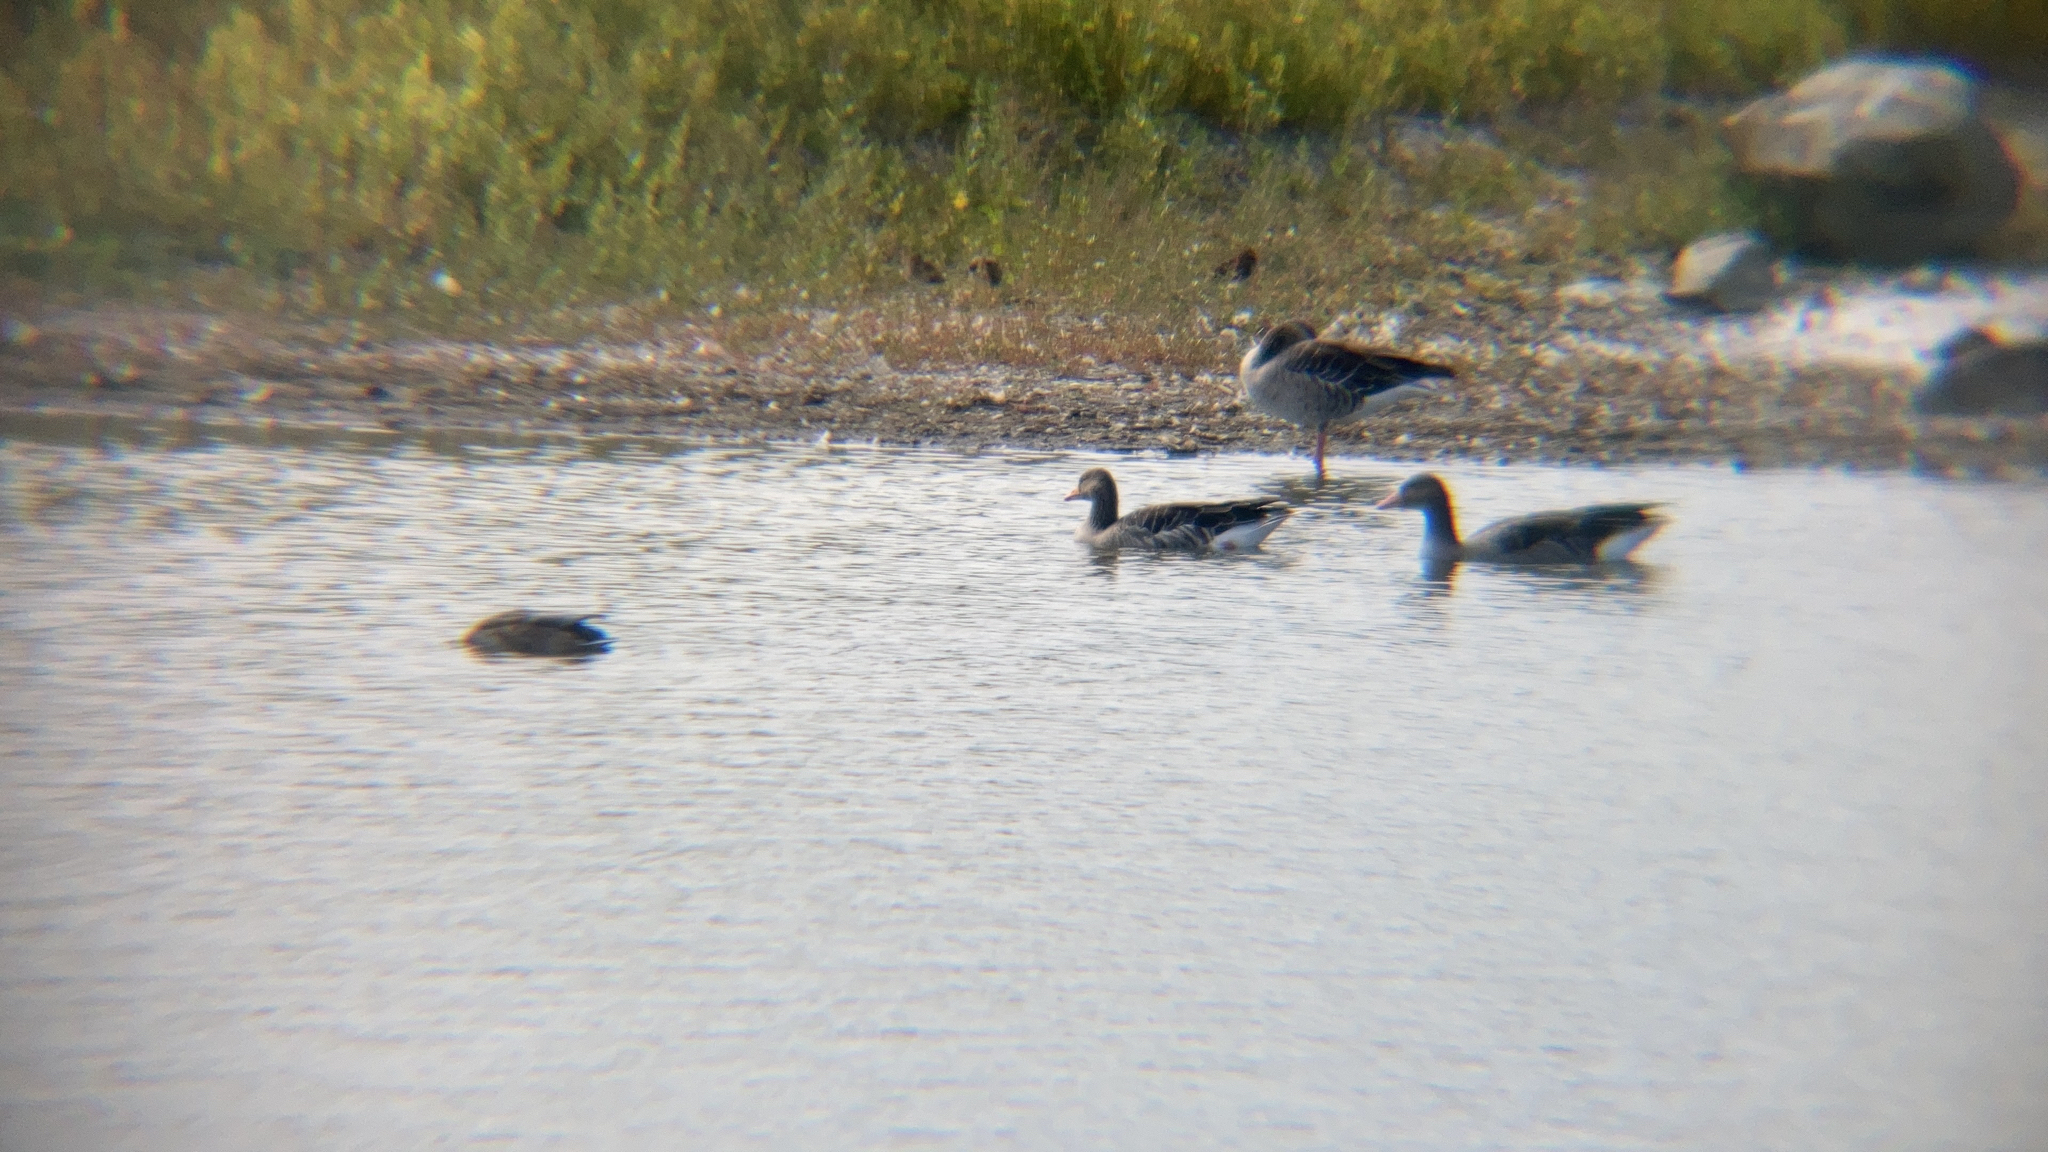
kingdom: Animalia
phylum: Chordata
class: Aves
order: Anseriformes
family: Anatidae
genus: Anser
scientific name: Anser anser
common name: Greylag goose
